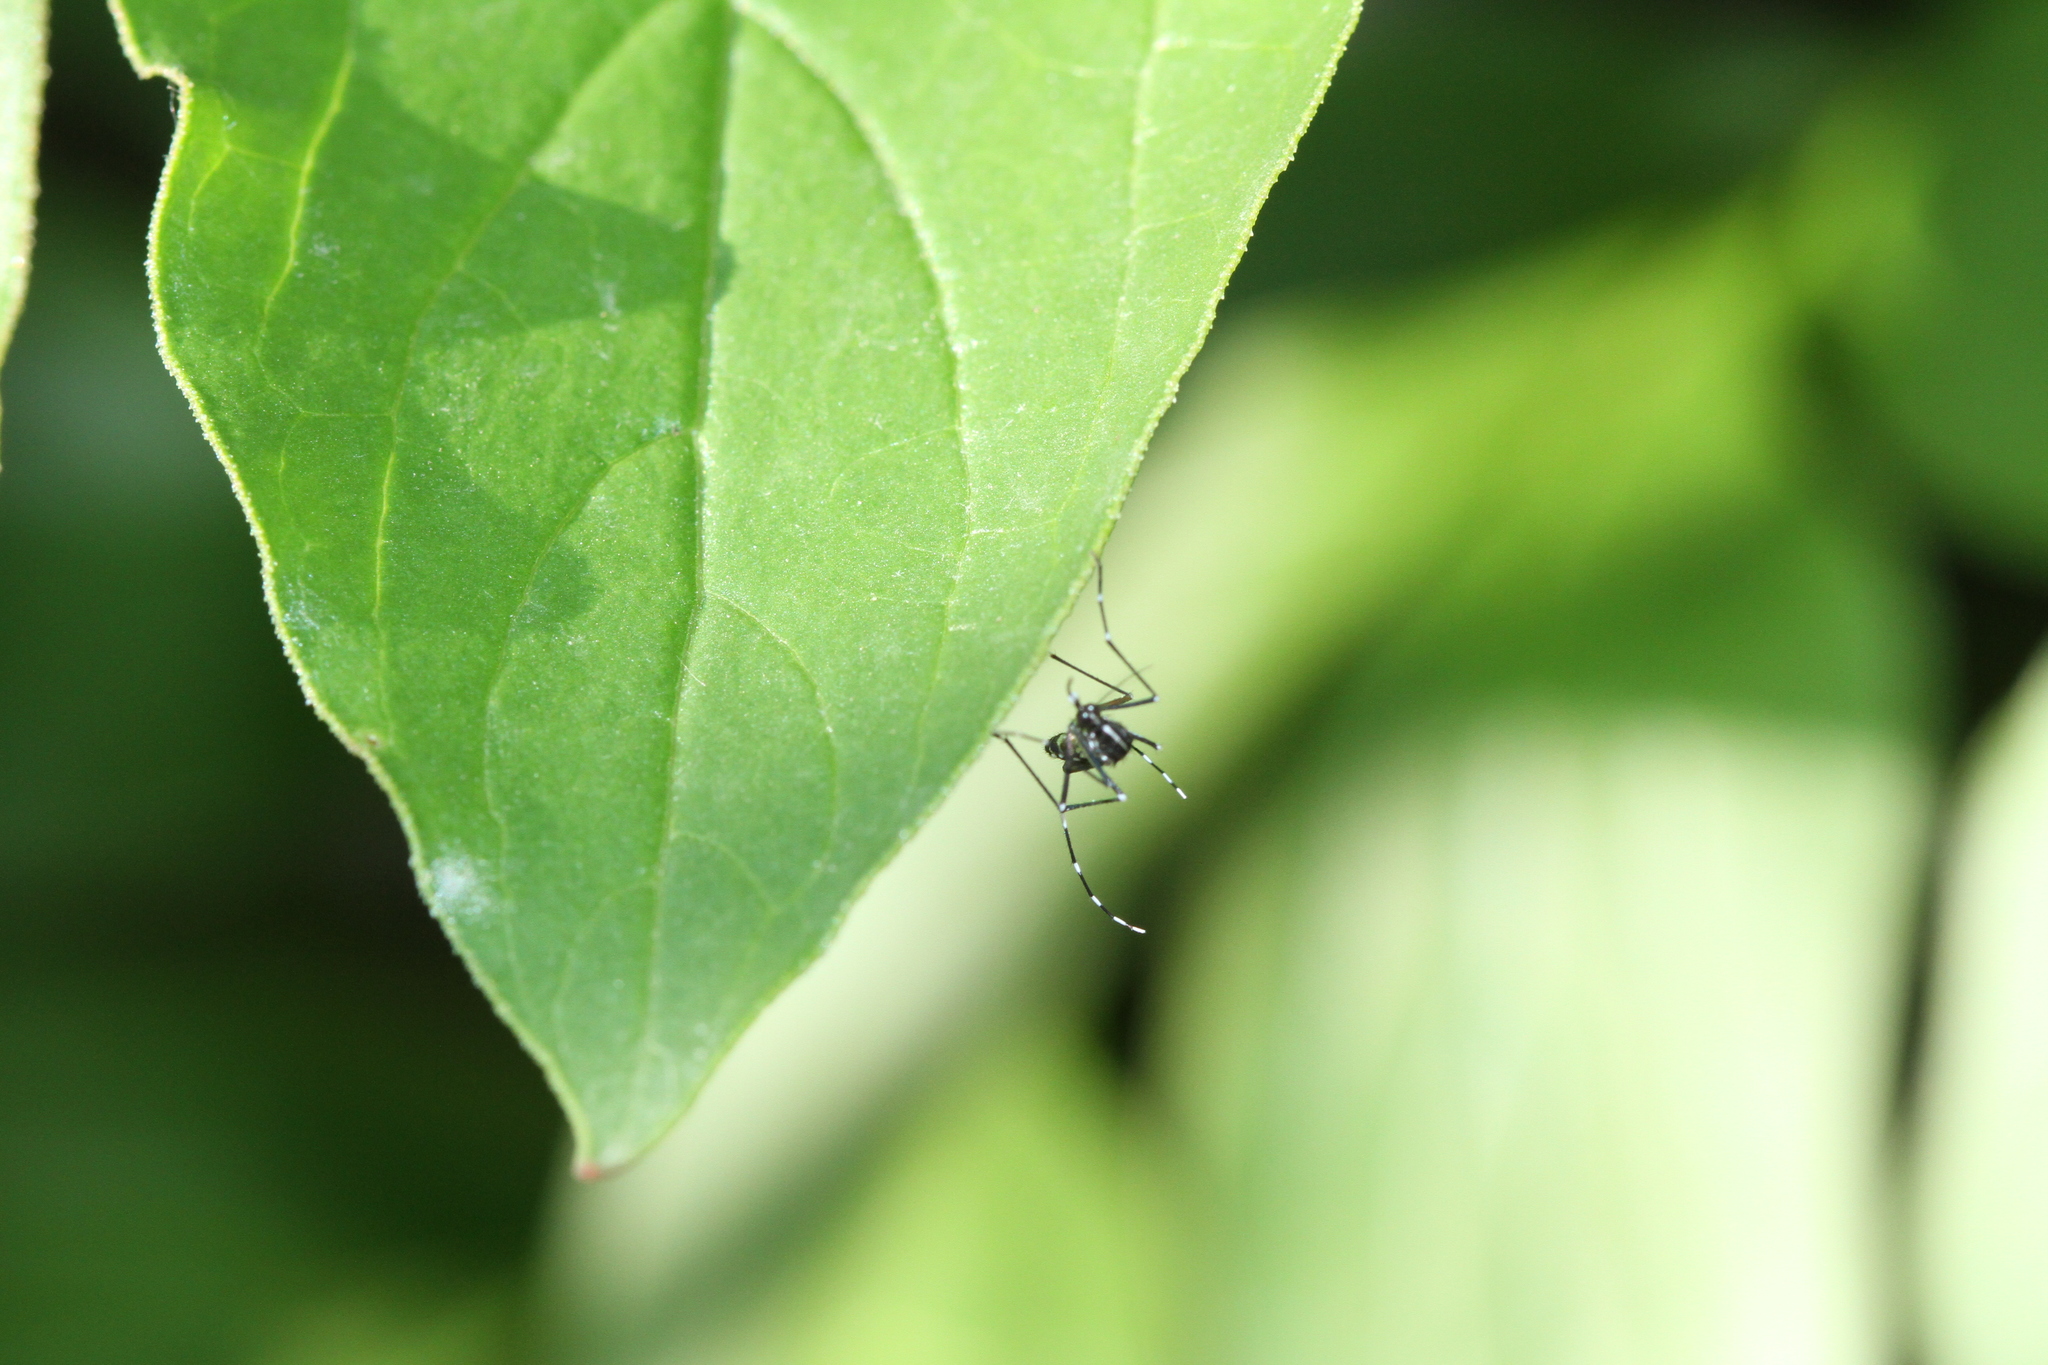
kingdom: Animalia
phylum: Arthropoda
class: Insecta
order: Diptera
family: Culicidae
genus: Aedes
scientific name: Aedes albopictus
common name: Tiger mosquito
